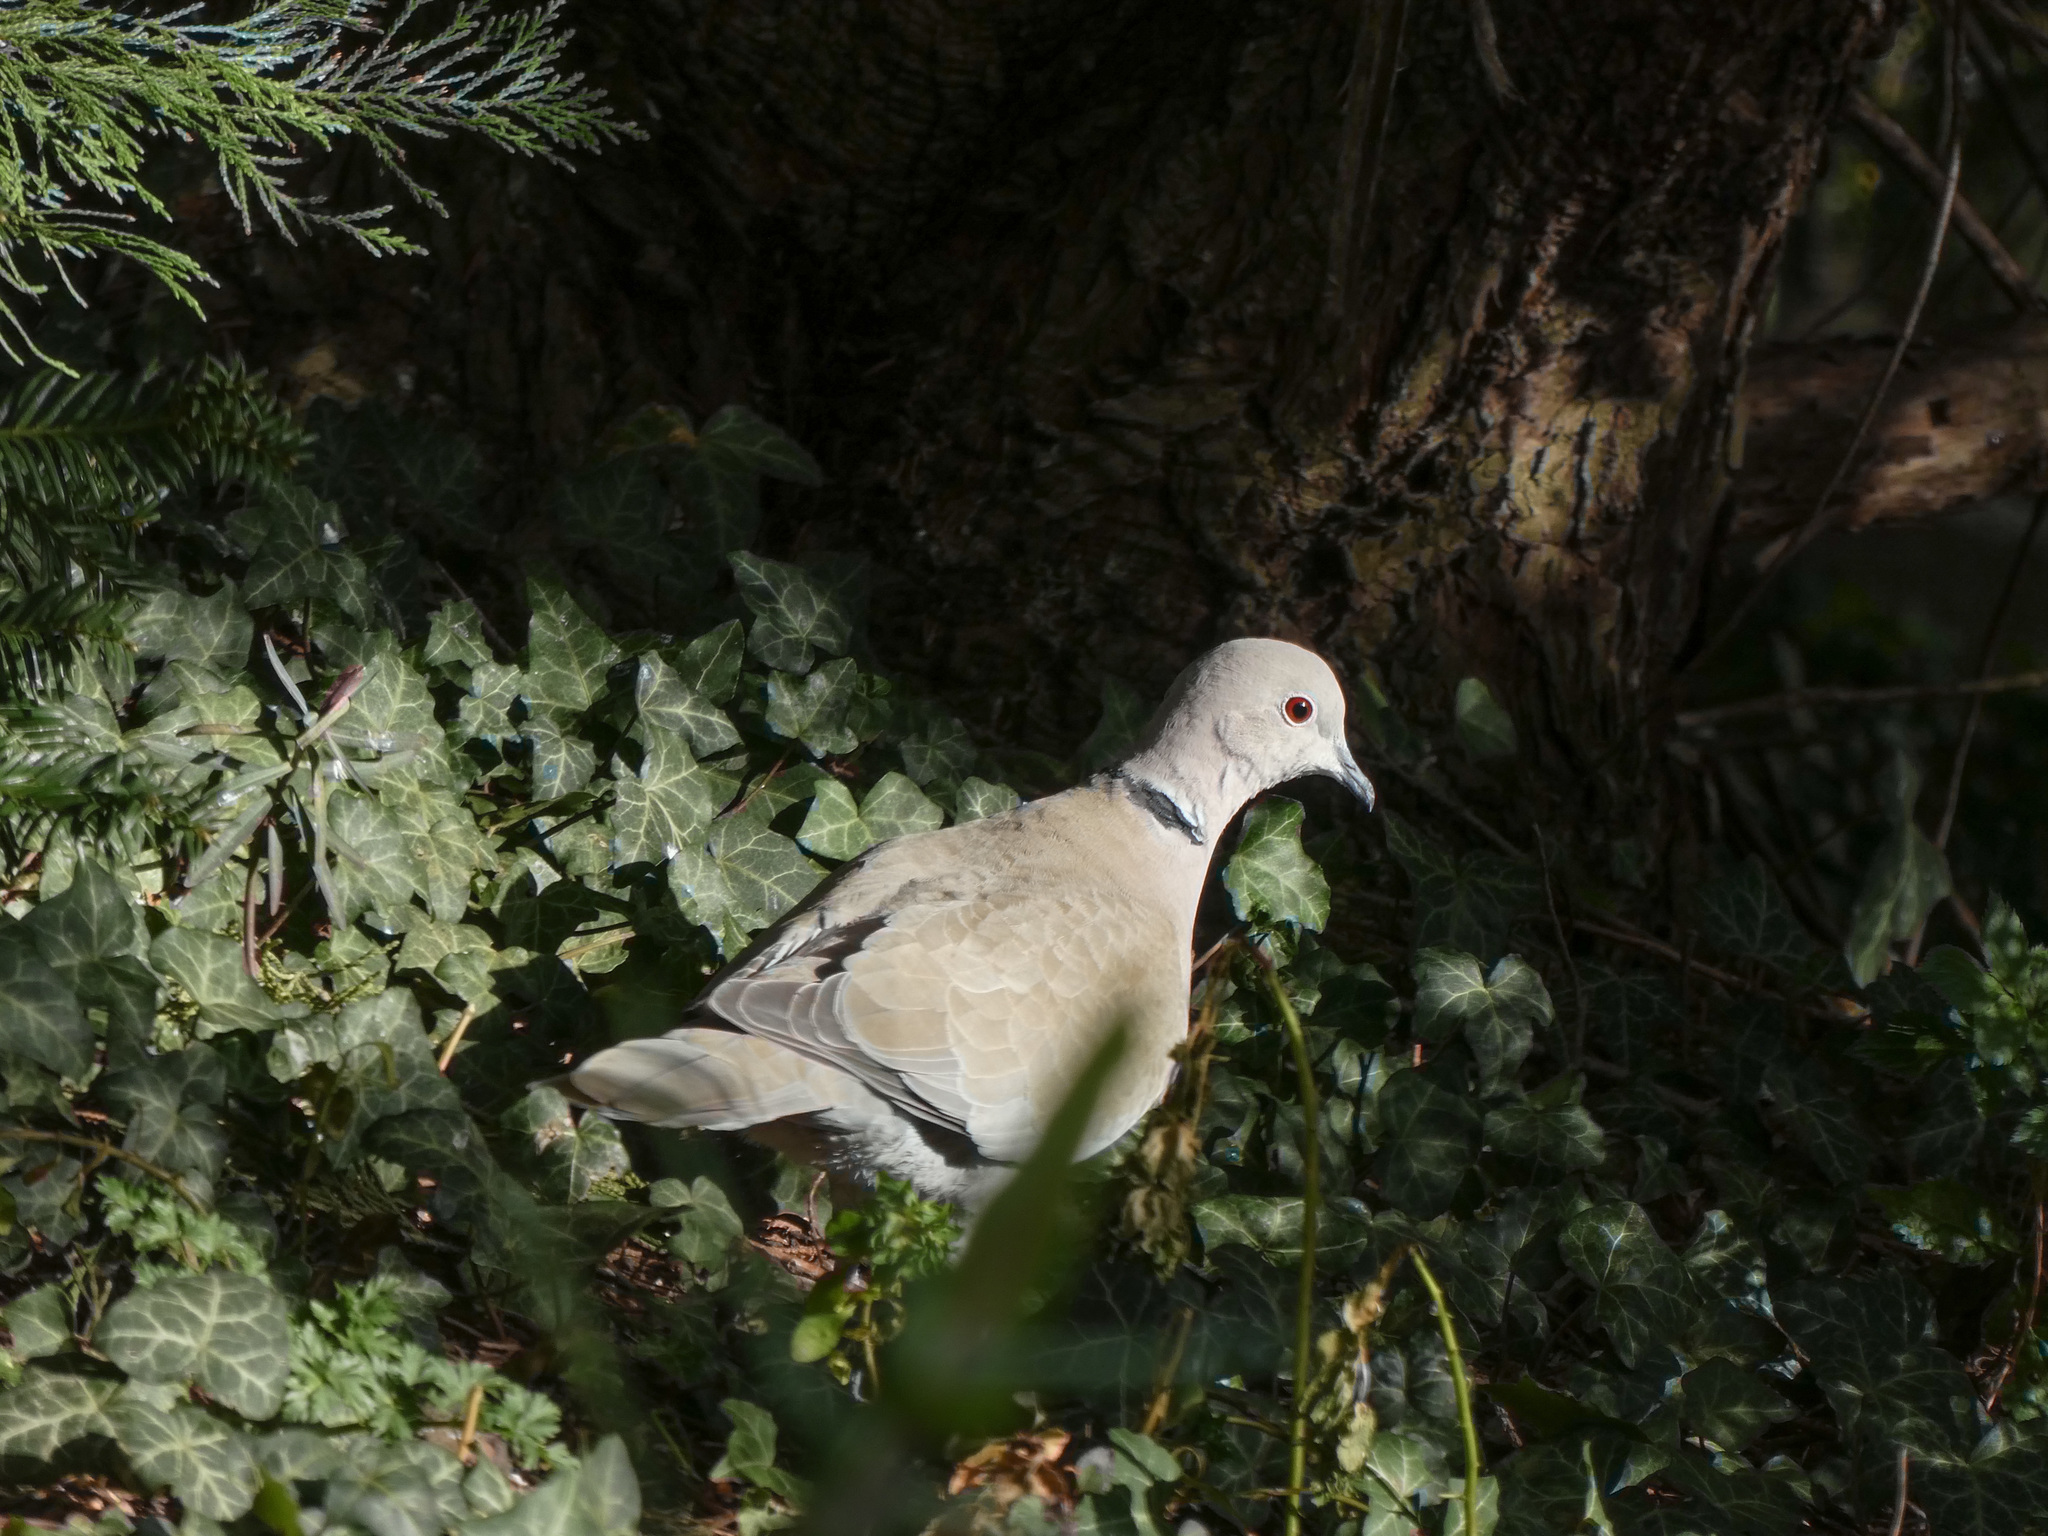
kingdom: Animalia
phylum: Chordata
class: Aves
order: Columbiformes
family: Columbidae
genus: Streptopelia
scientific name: Streptopelia decaocto
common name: Eurasian collared dove
